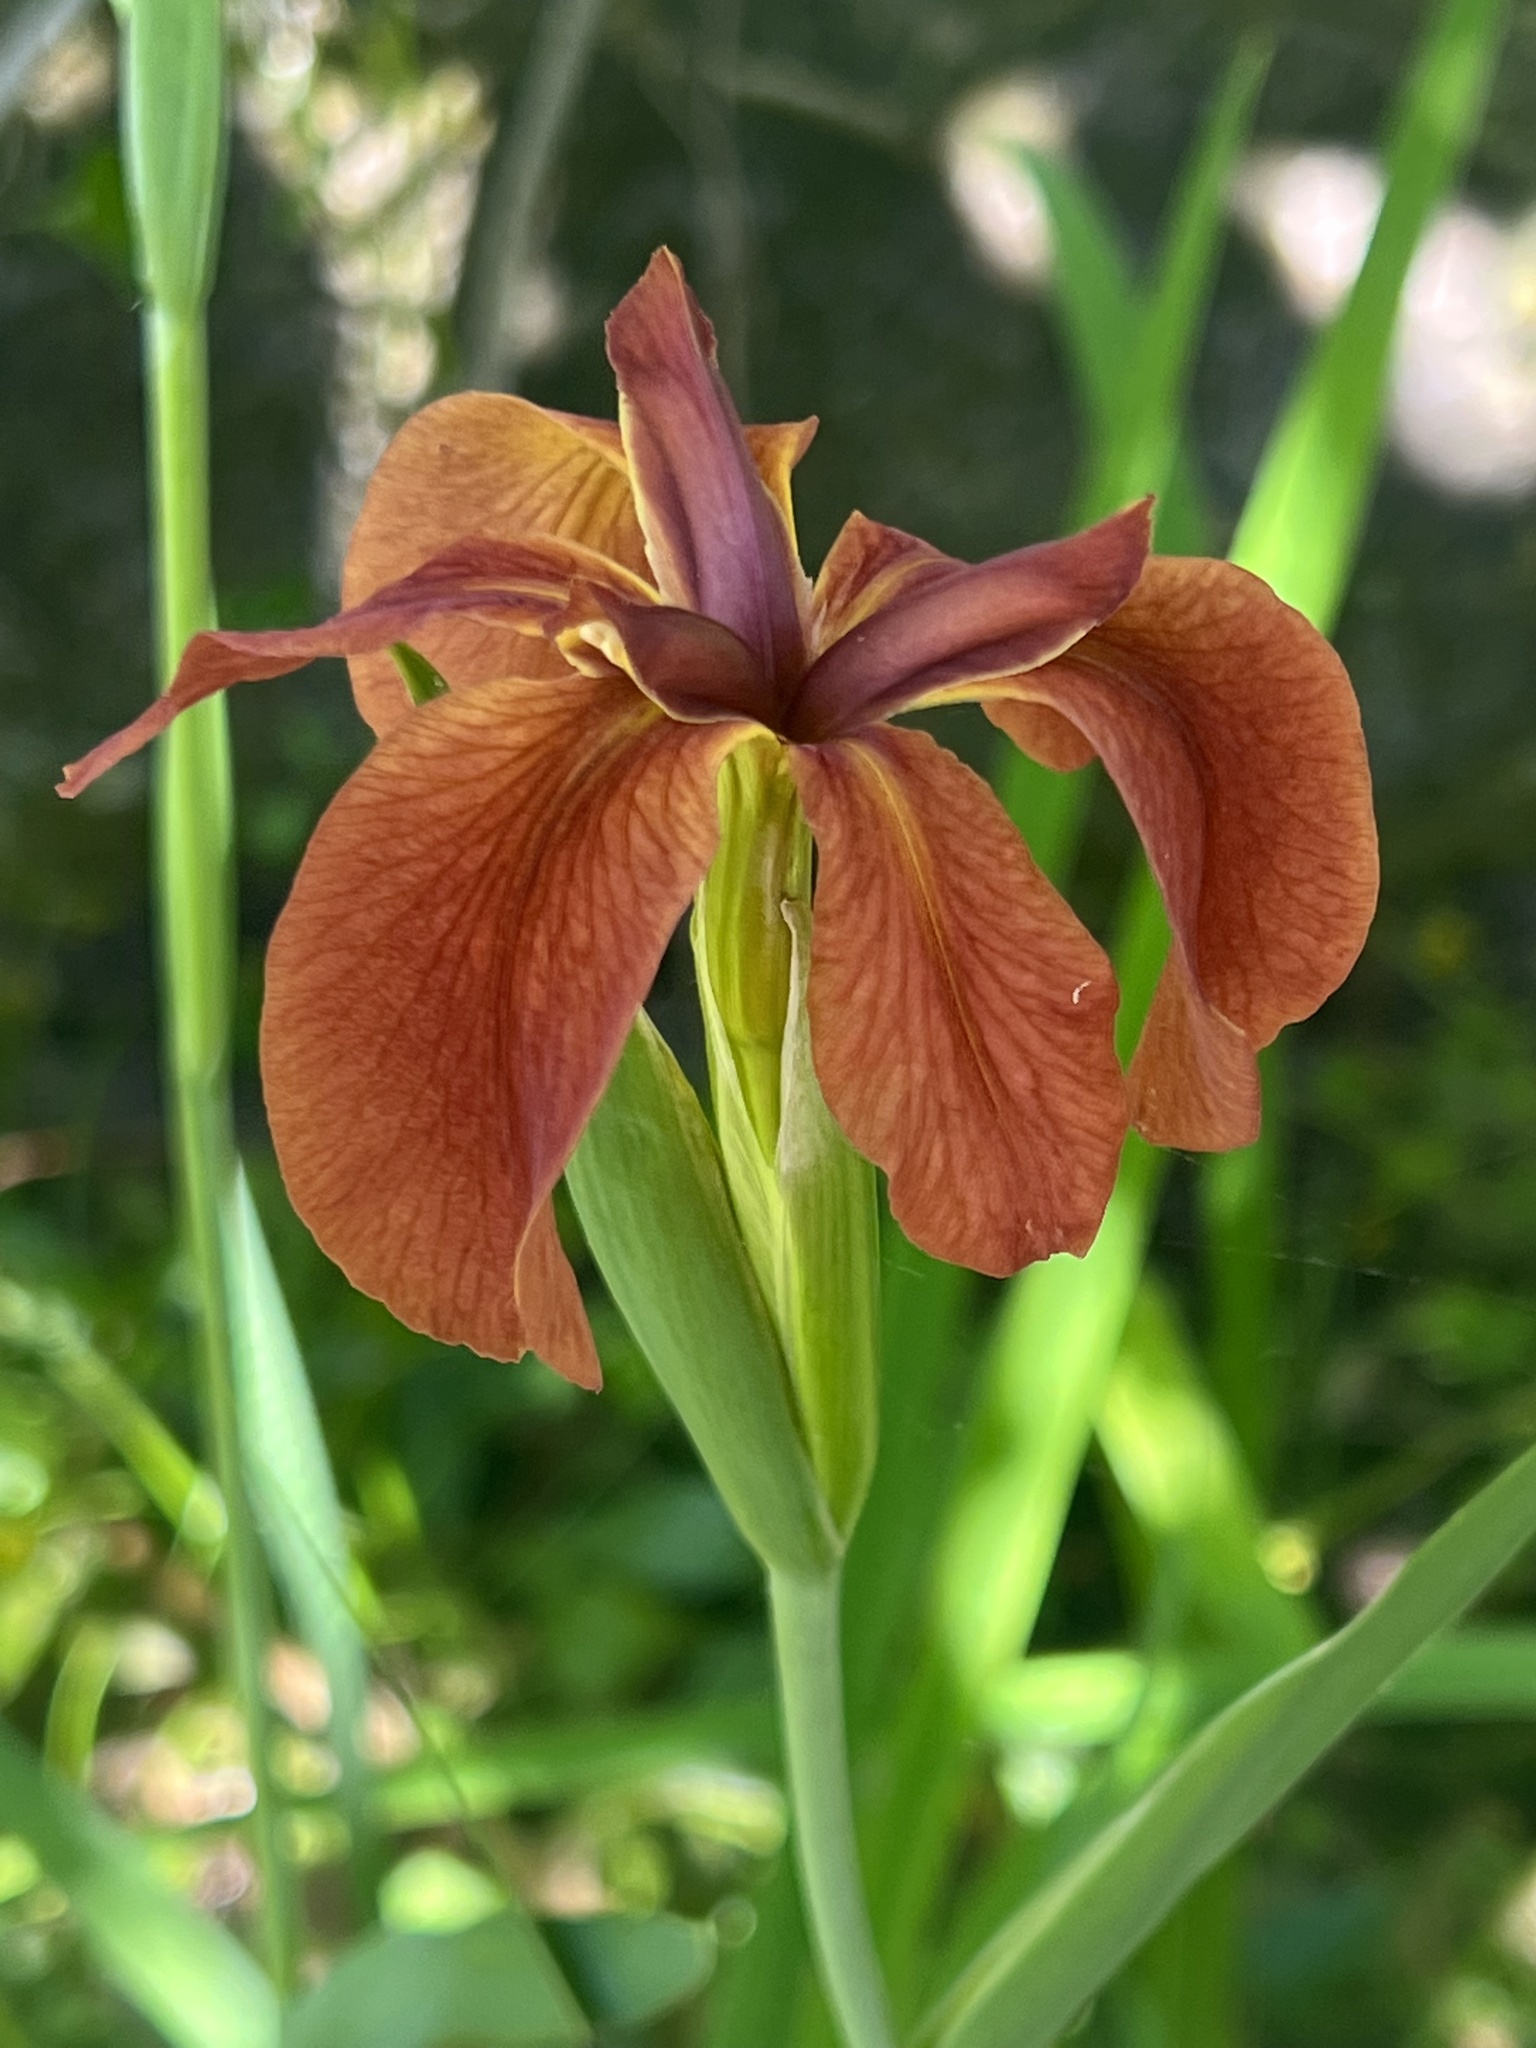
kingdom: Plantae
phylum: Tracheophyta
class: Liliopsida
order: Asparagales
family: Iridaceae
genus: Iris
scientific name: Iris fulva
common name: Copper iris
